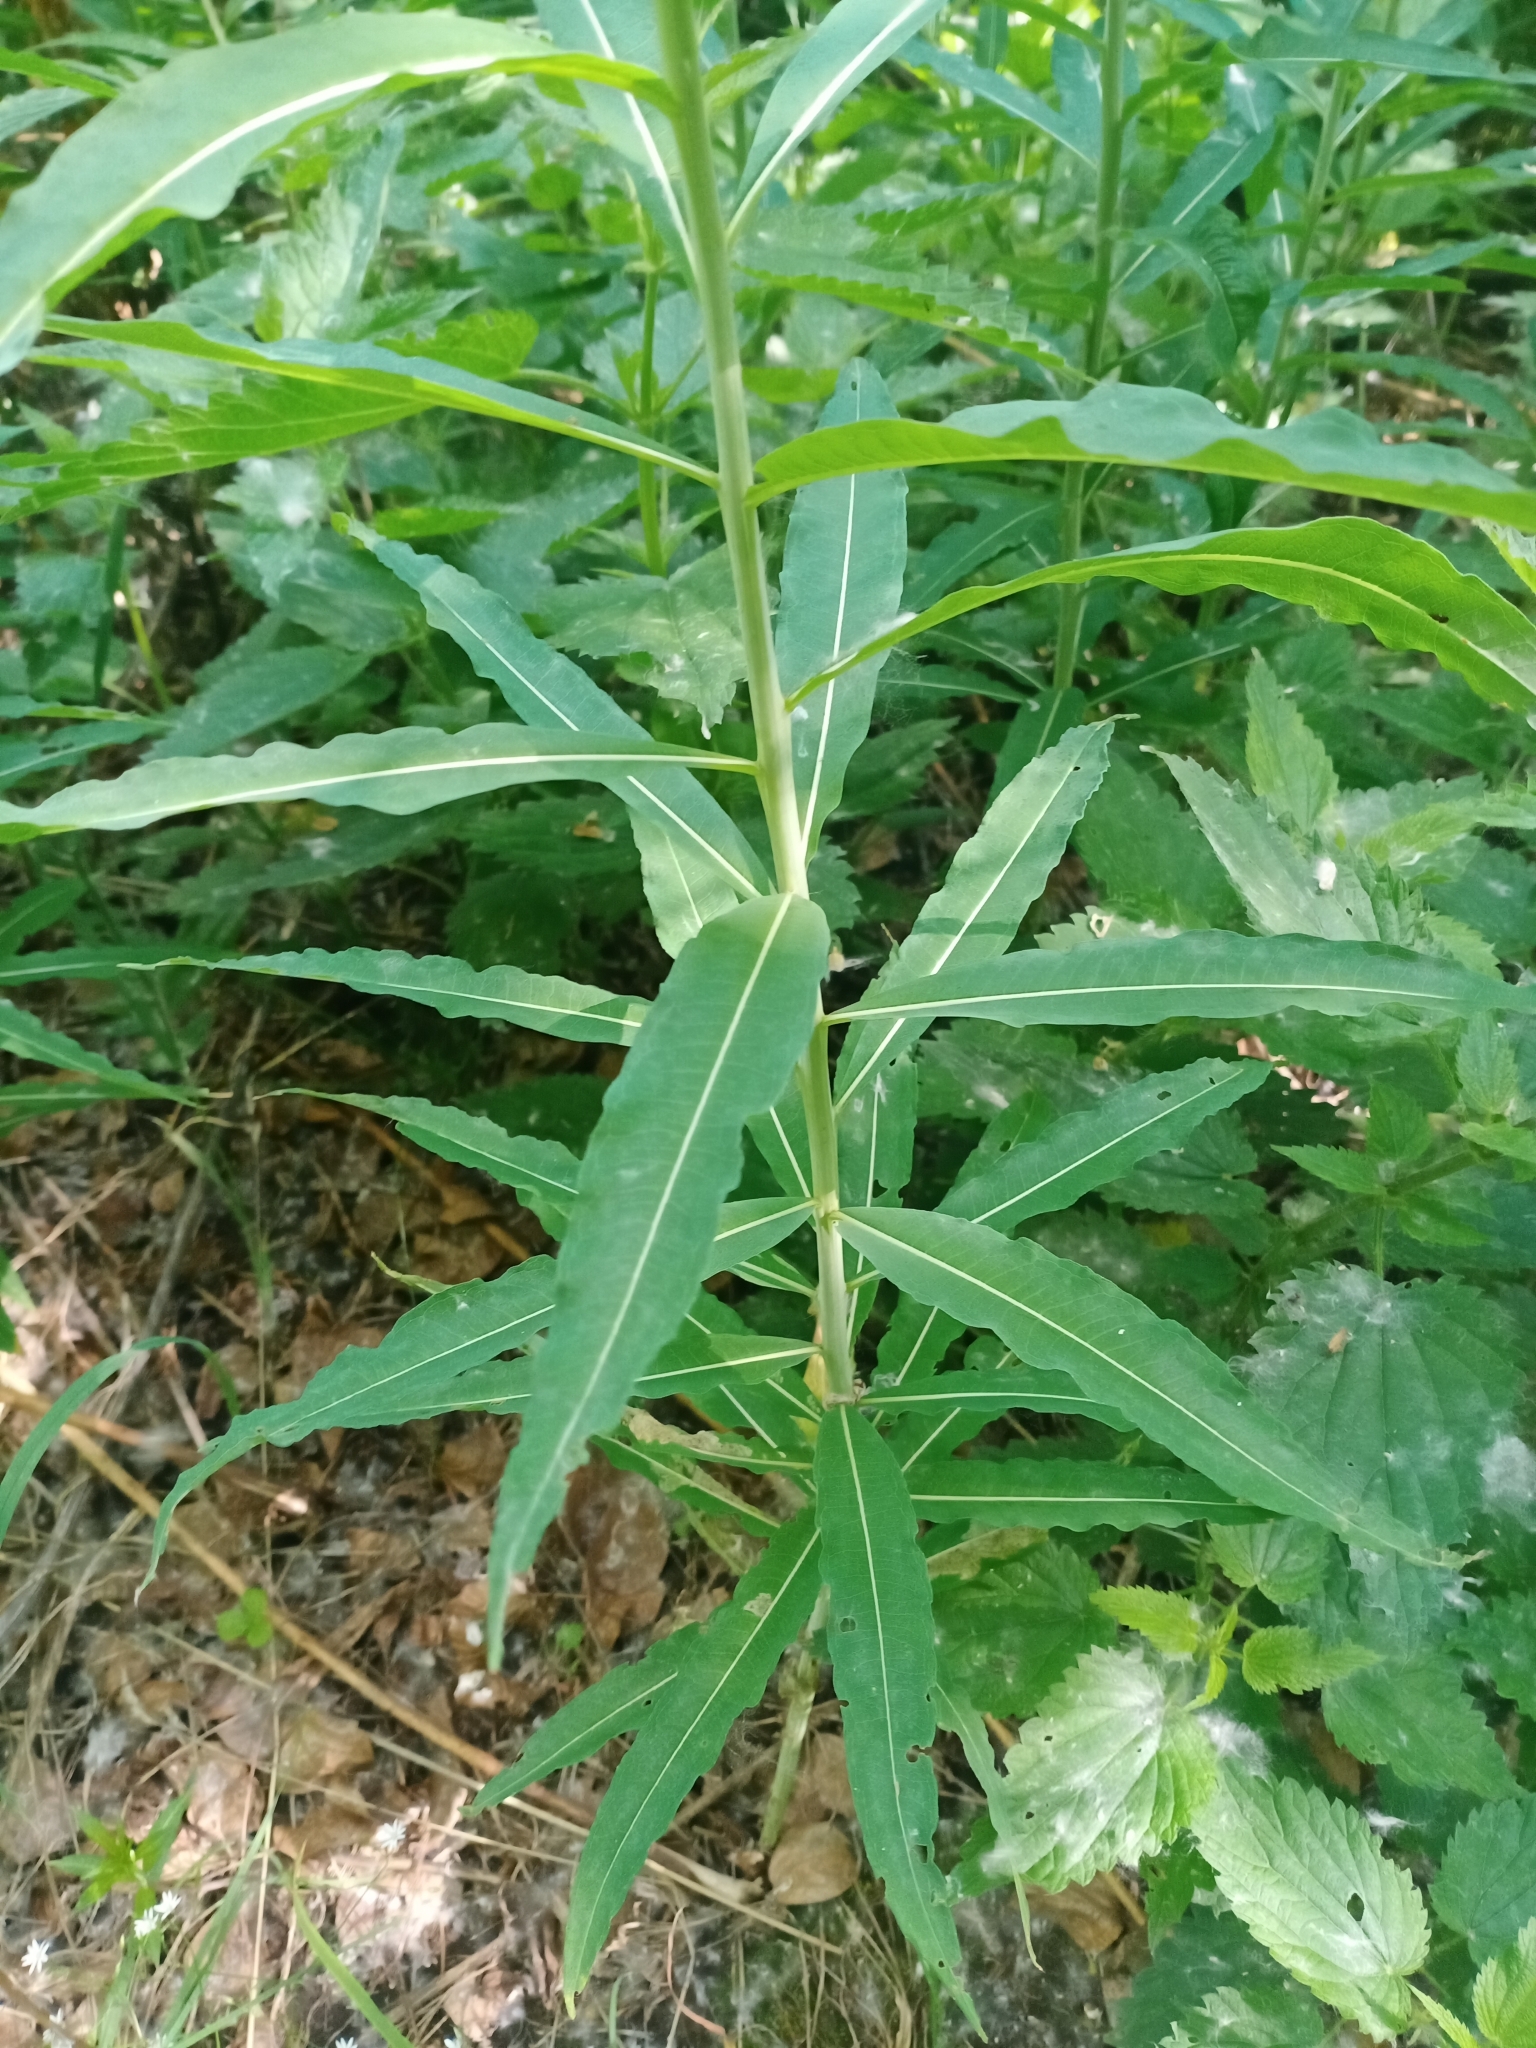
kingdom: Plantae
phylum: Tracheophyta
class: Magnoliopsida
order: Myrtales
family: Onagraceae
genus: Chamaenerion
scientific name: Chamaenerion angustifolium
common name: Fireweed
